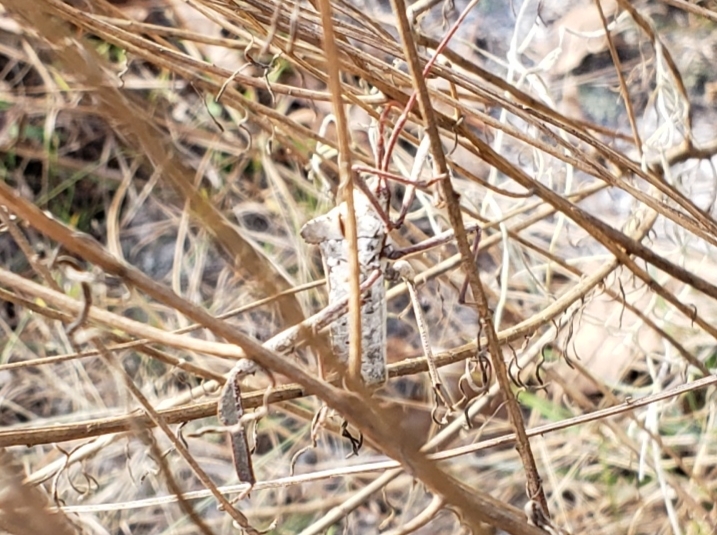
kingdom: Animalia
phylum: Arthropoda
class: Insecta
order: Hemiptera
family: Coreidae
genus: Acanthocephala
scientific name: Acanthocephala declivis
